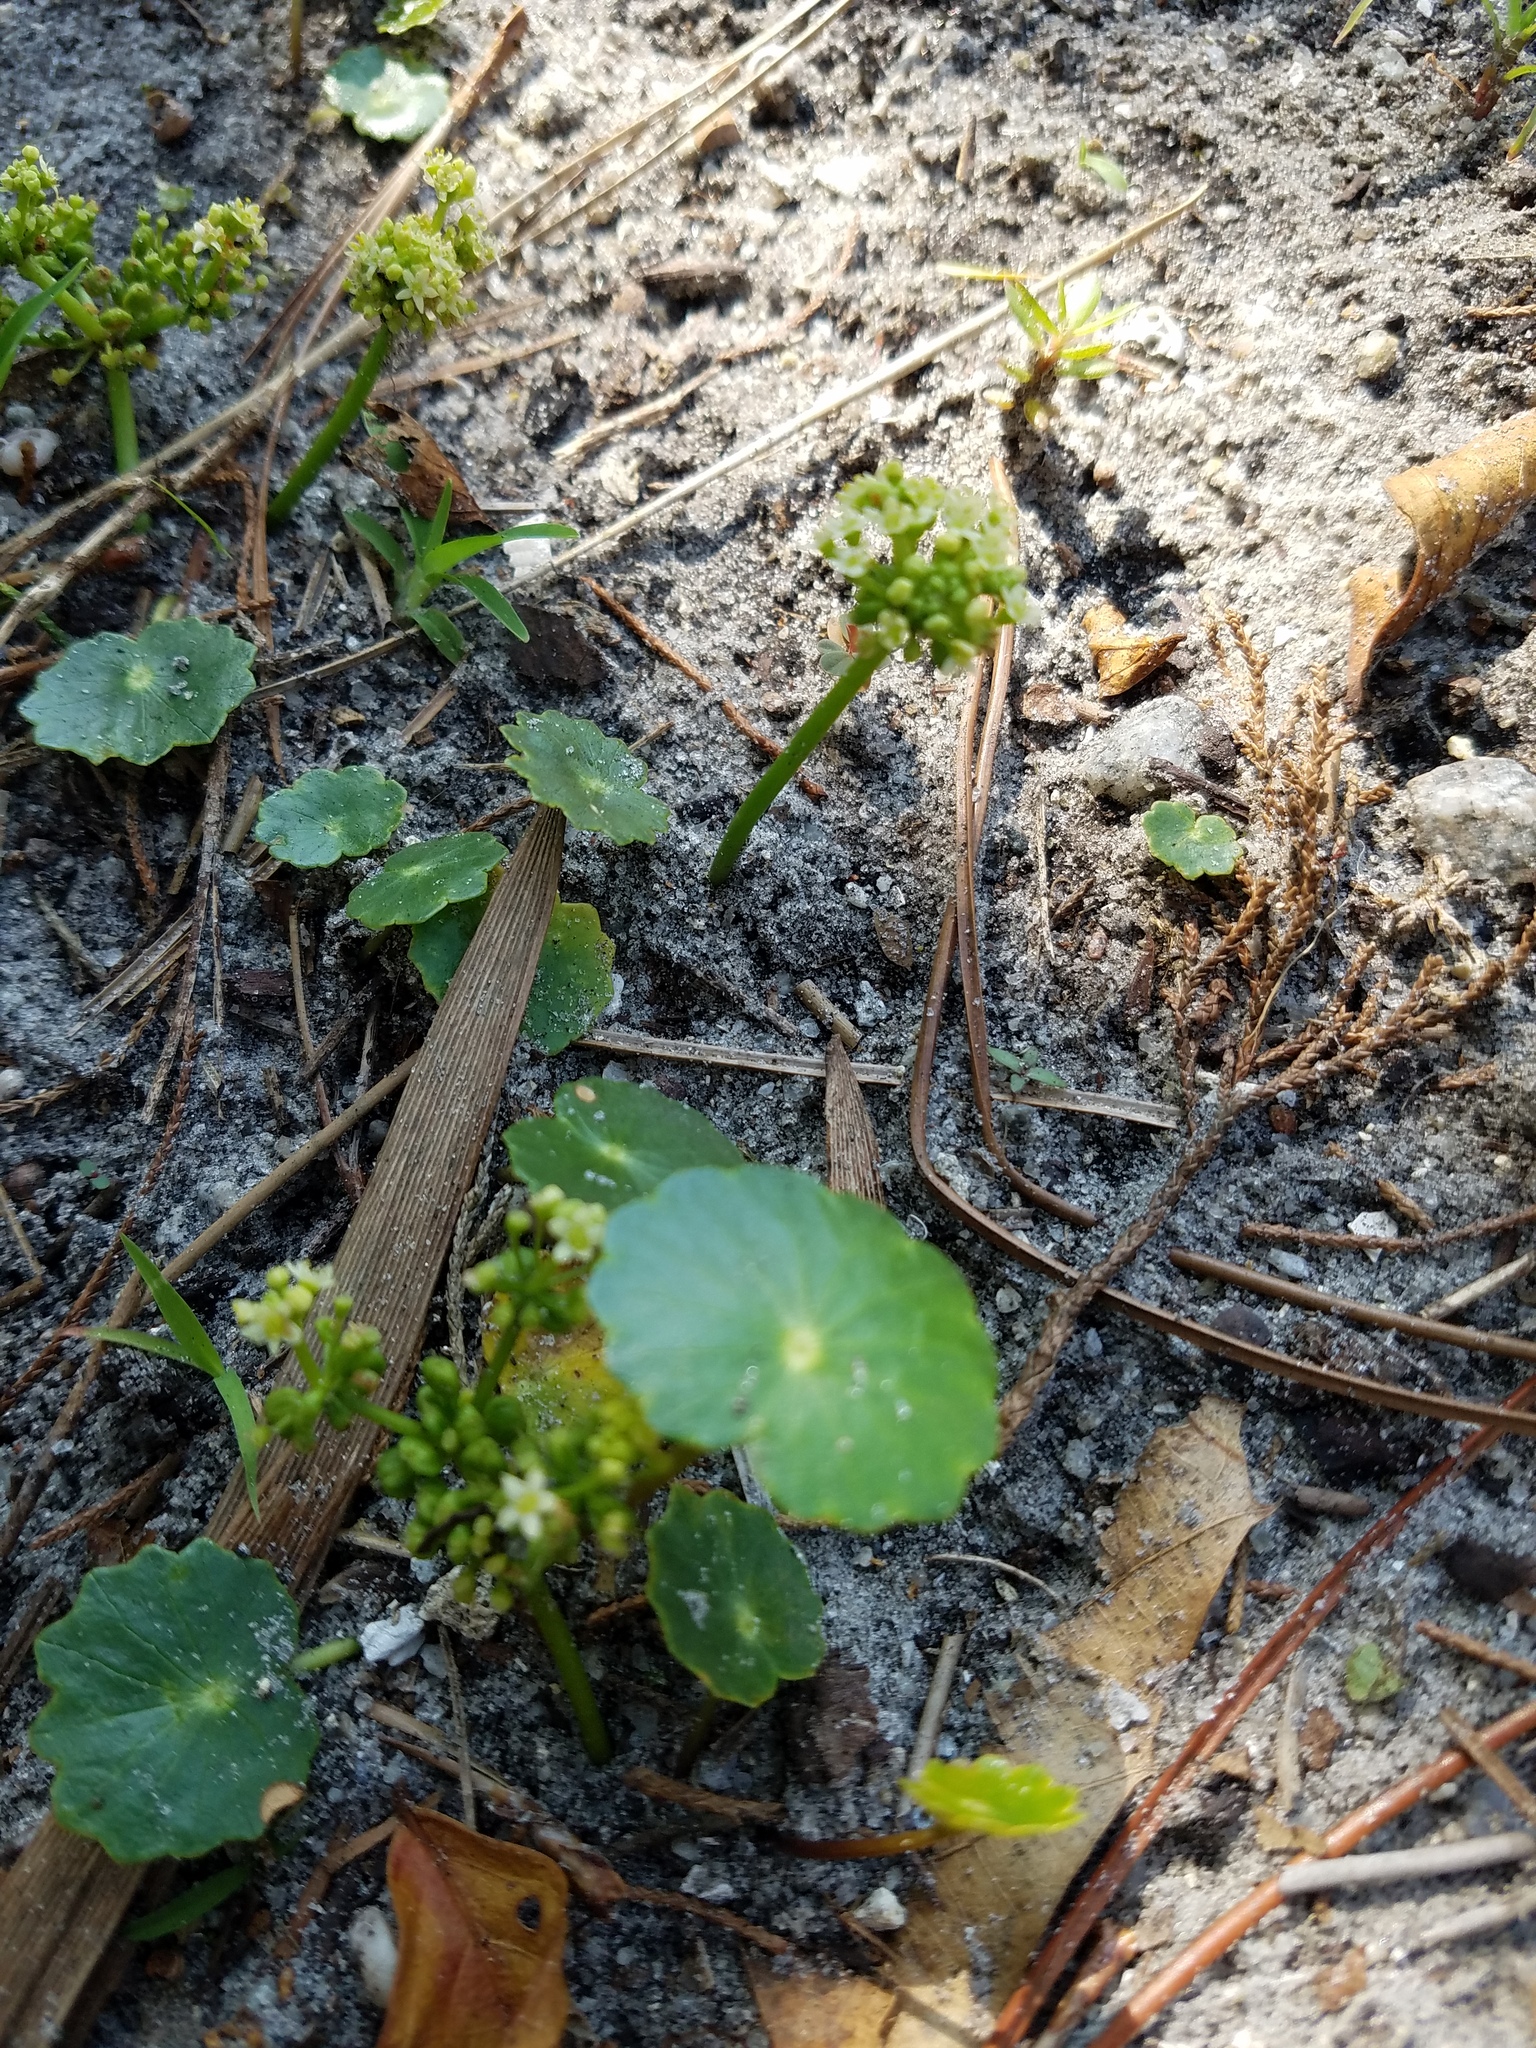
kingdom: Plantae
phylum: Tracheophyta
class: Magnoliopsida
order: Apiales
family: Araliaceae
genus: Hydrocotyle
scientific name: Hydrocotyle bonariensis
